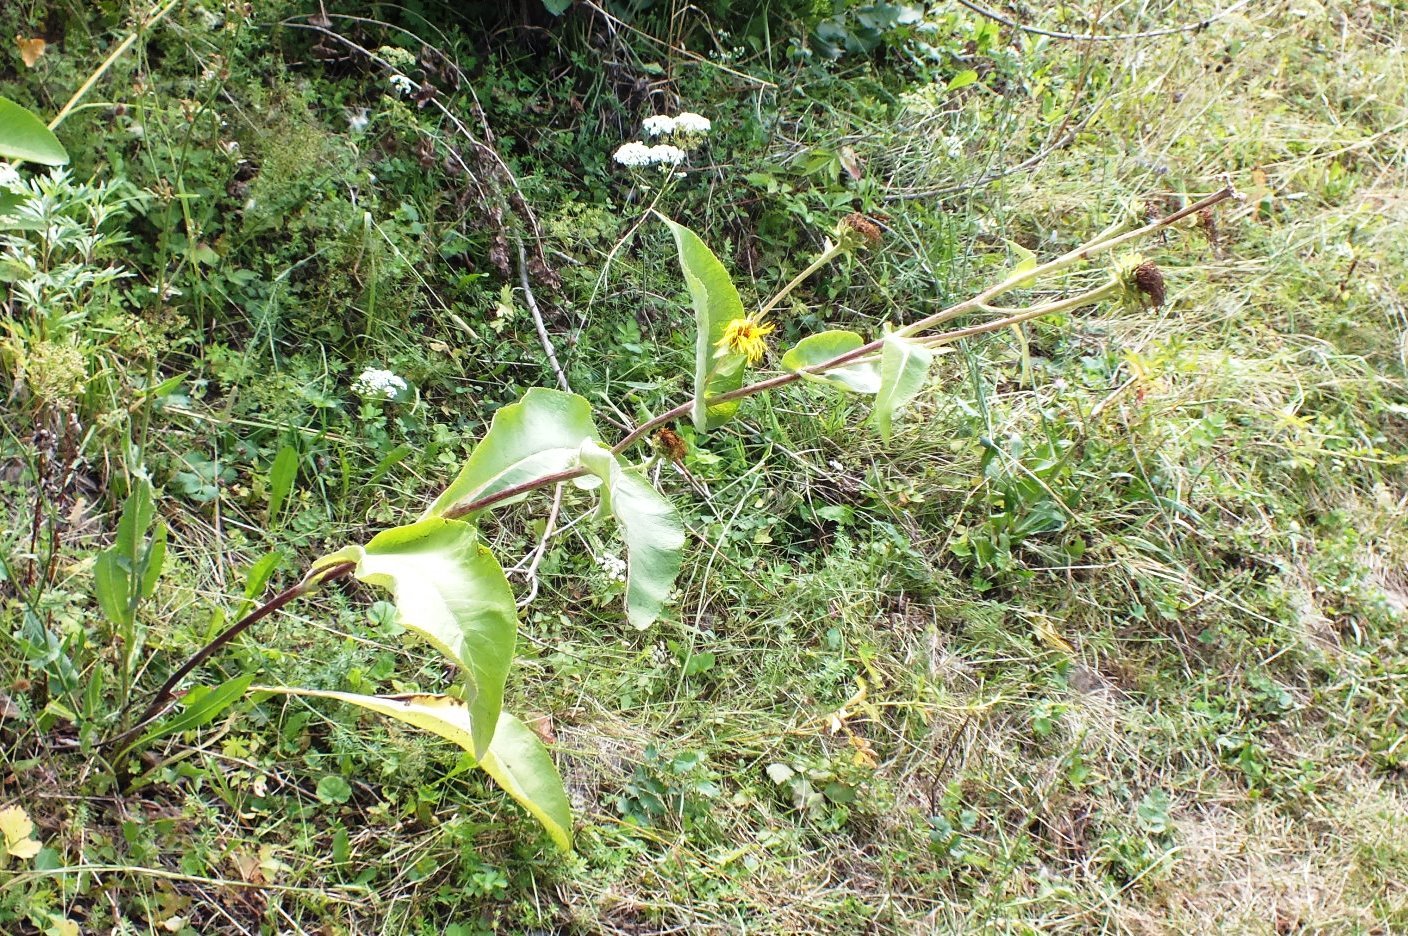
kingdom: Plantae
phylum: Tracheophyta
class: Magnoliopsida
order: Asterales
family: Asteraceae
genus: Inula
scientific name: Inula helenium
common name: Elecampane
